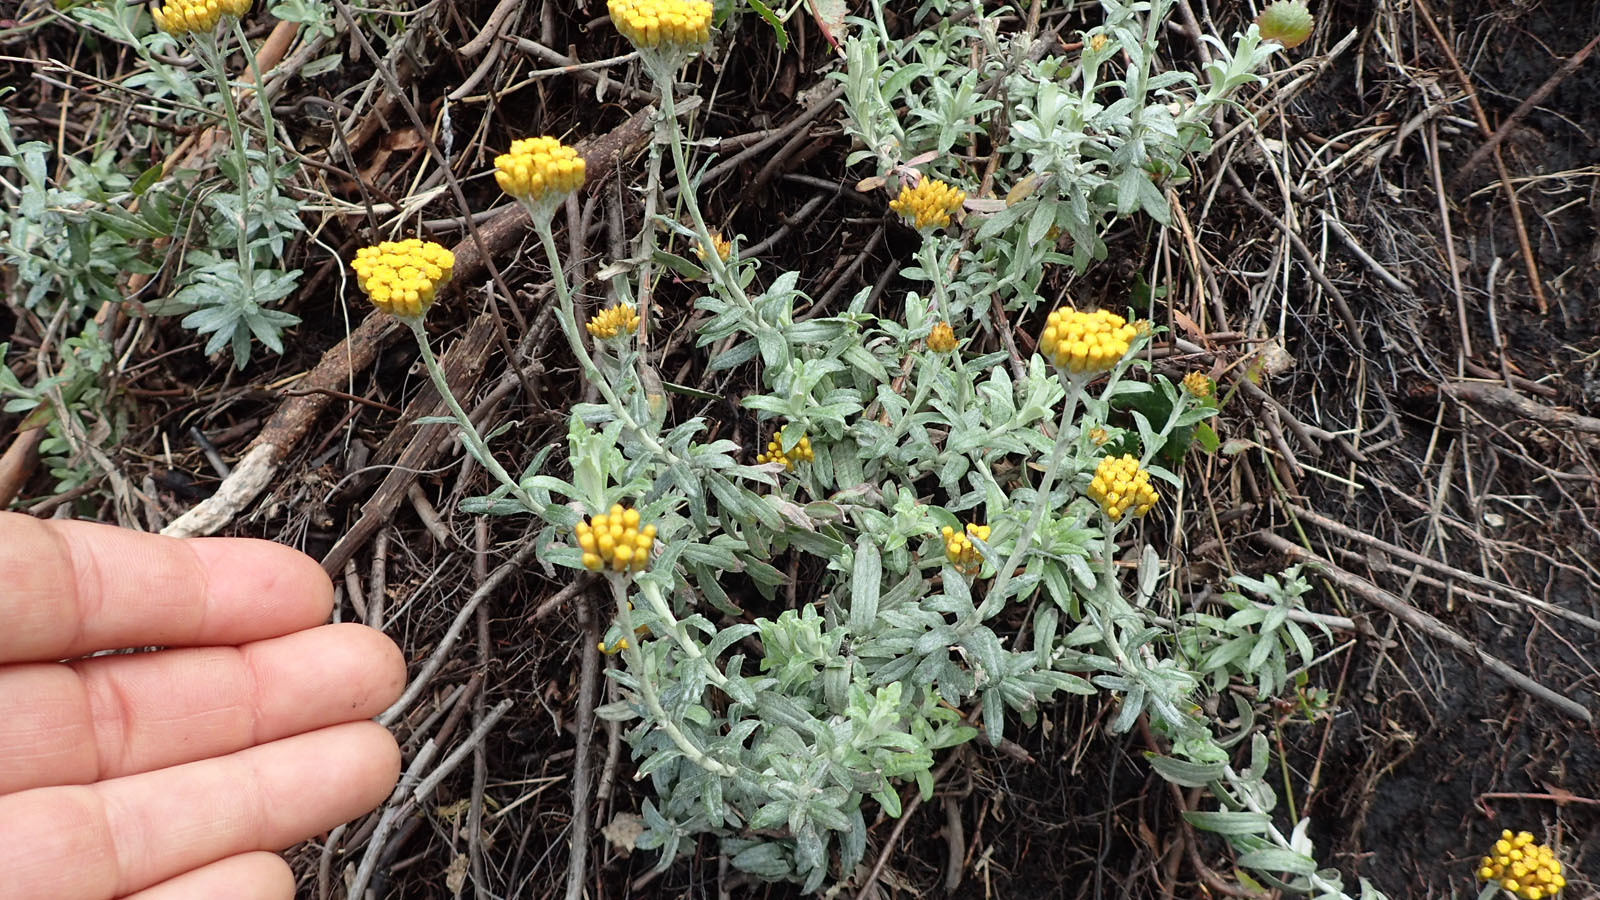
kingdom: Plantae
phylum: Tracheophyta
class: Magnoliopsida
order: Asterales
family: Asteraceae
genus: Helichrysum
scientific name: Helichrysum dasyanthum
